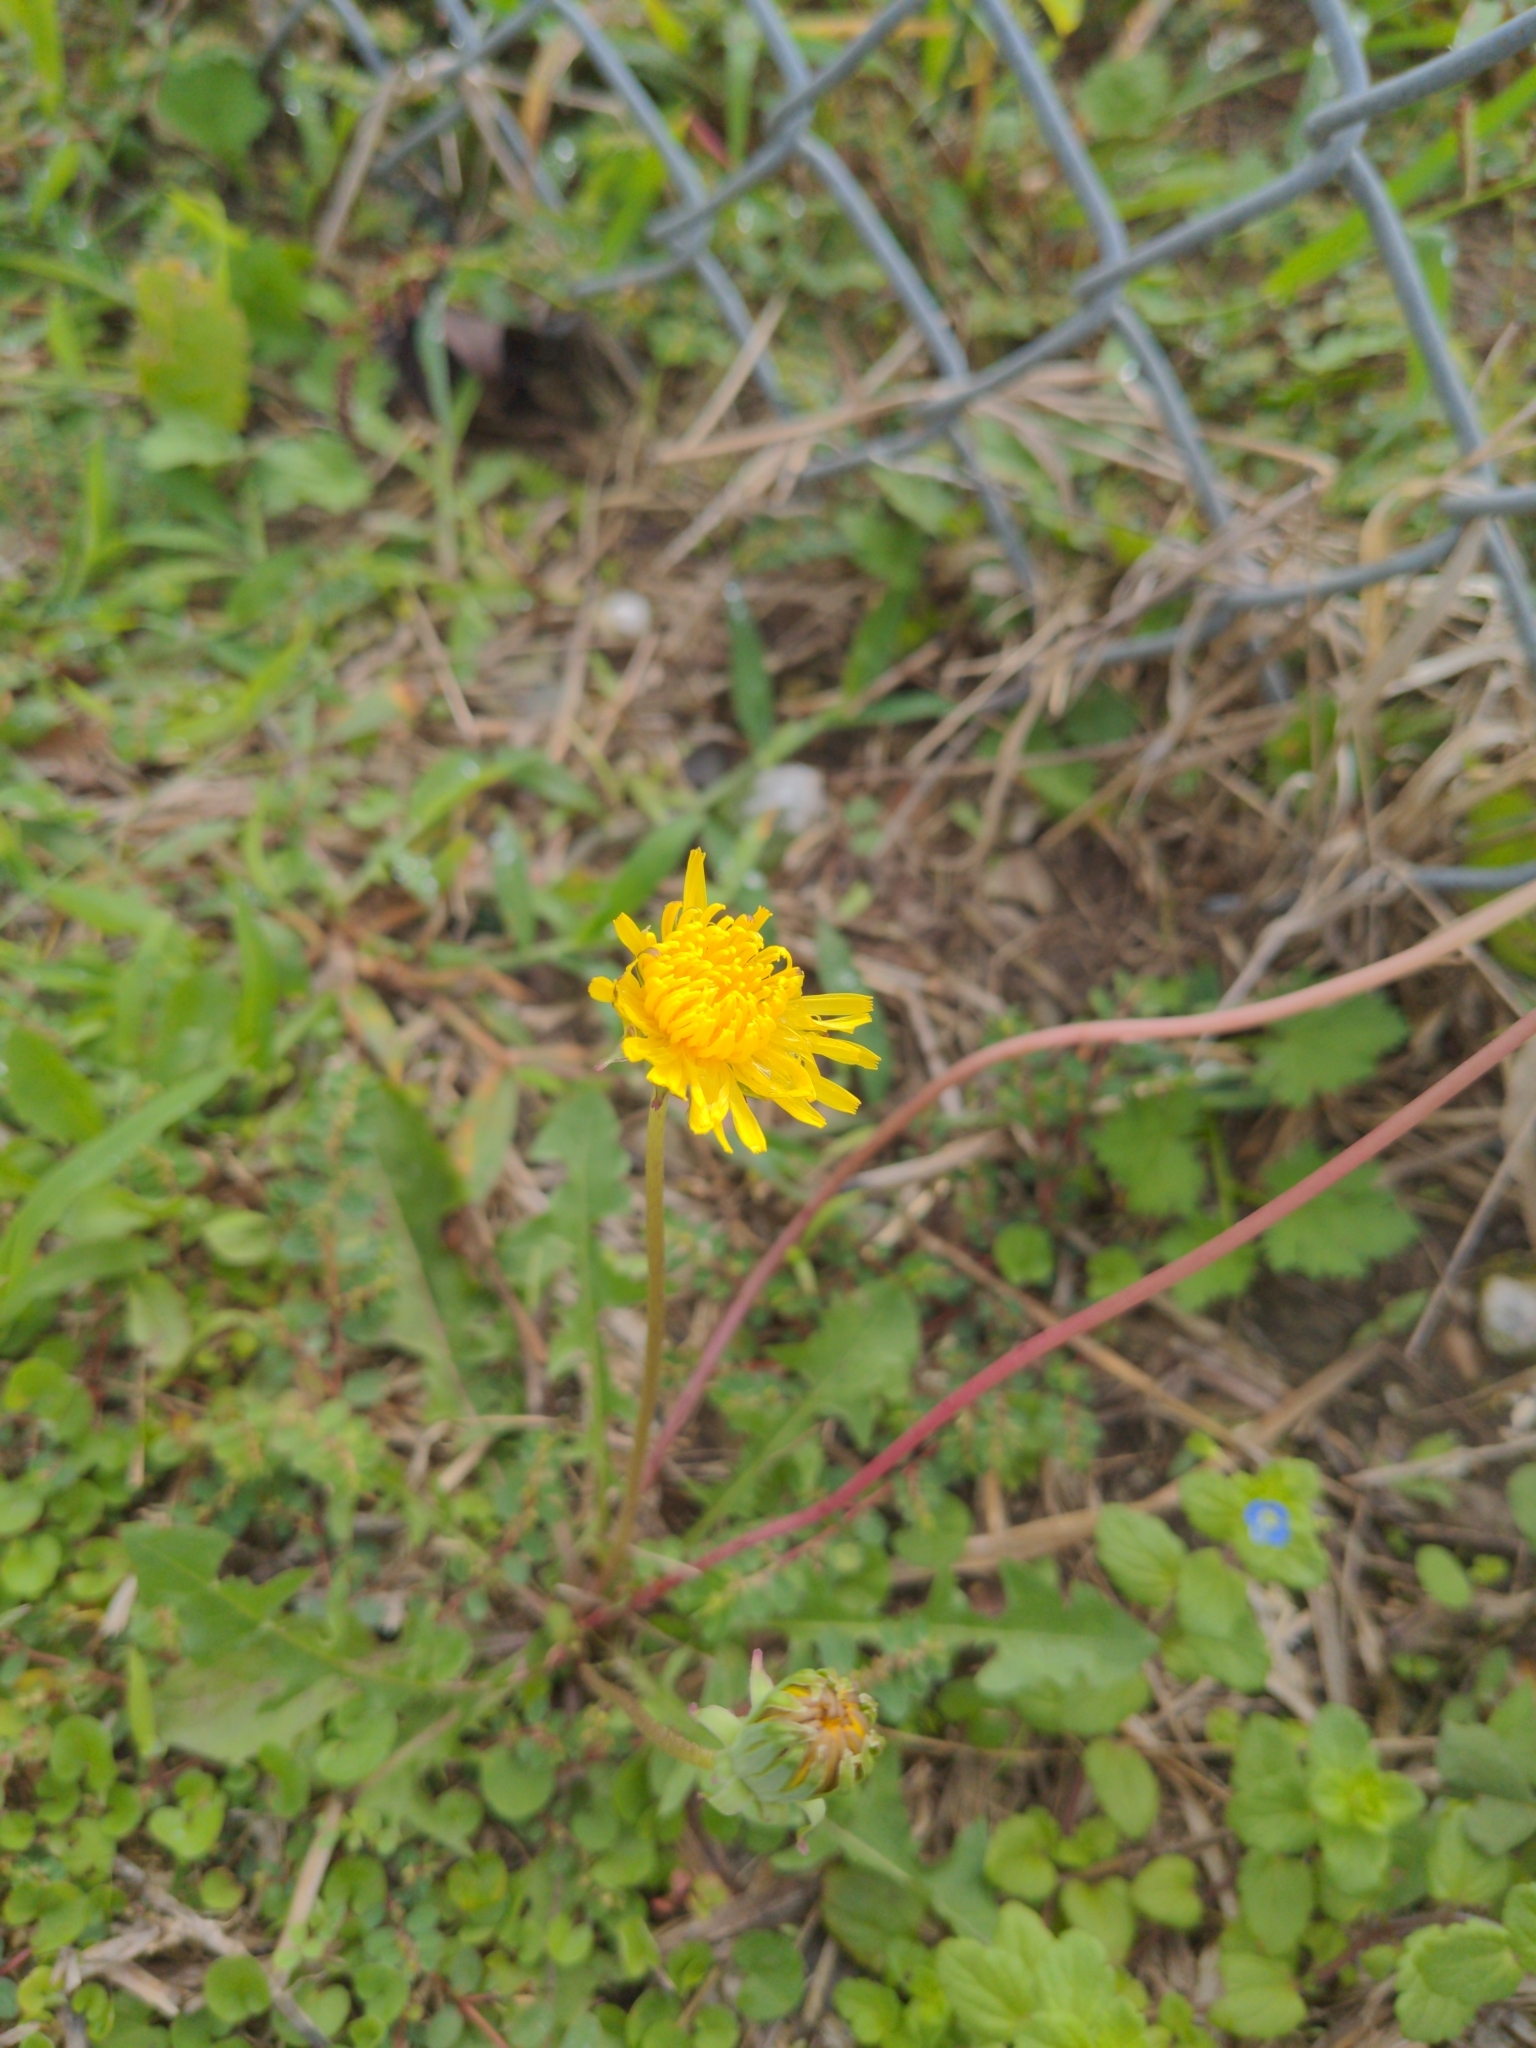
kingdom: Plantae
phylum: Tracheophyta
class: Magnoliopsida
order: Asterales
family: Asteraceae
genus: Taraxacum
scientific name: Taraxacum officinale
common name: Common dandelion
